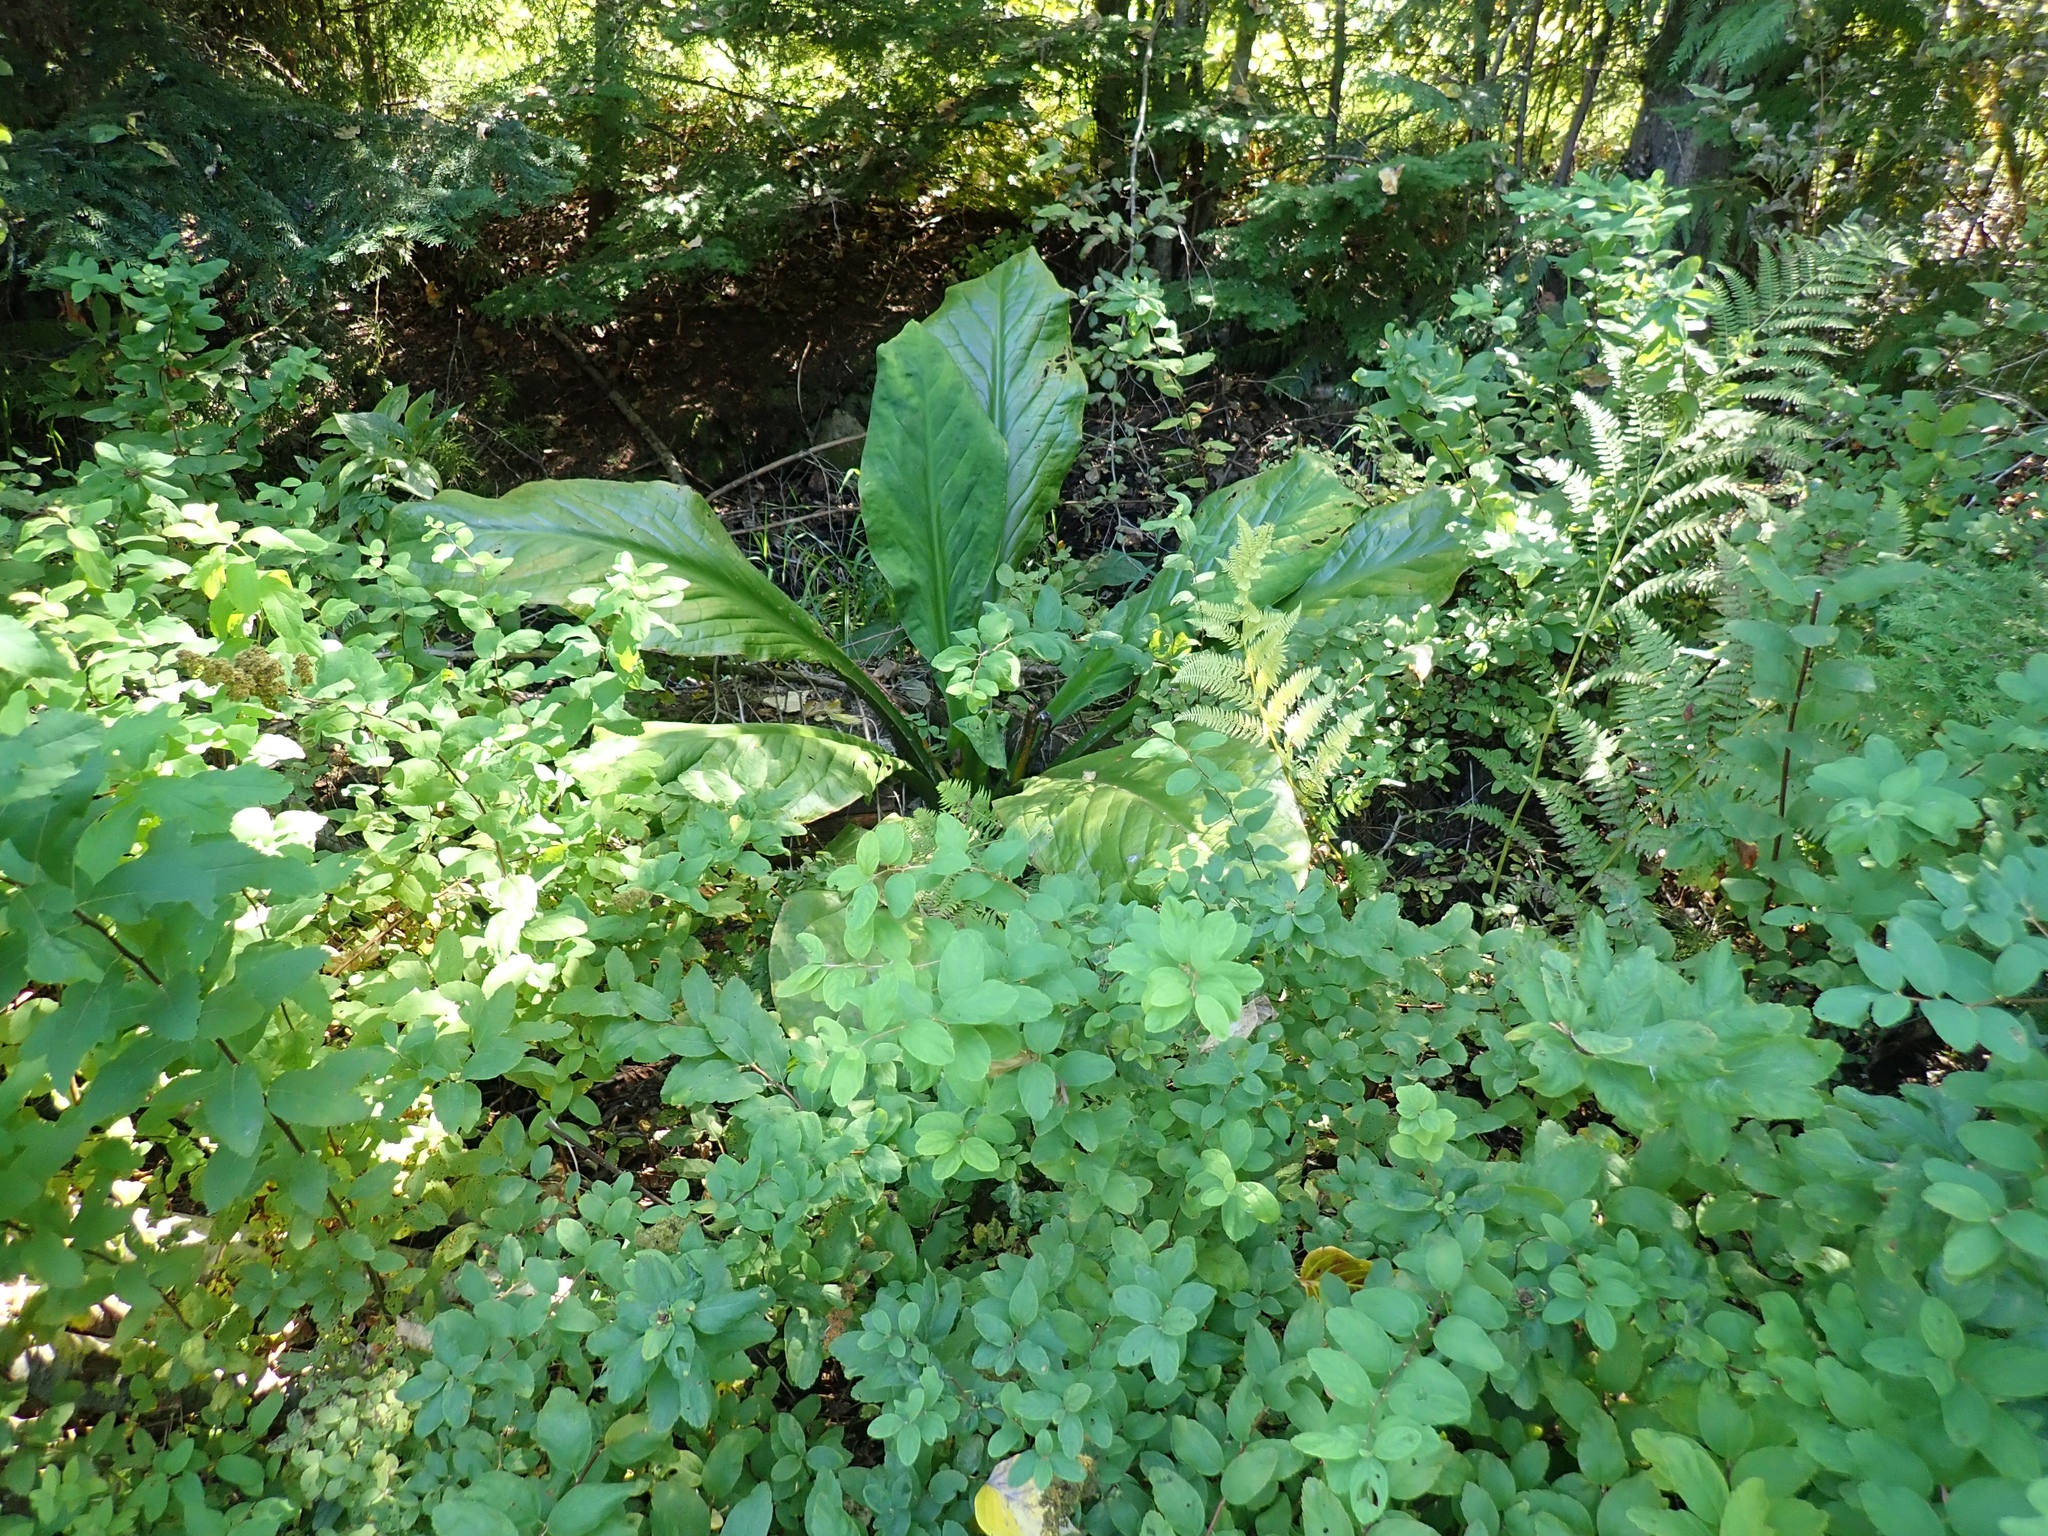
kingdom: Plantae
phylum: Tracheophyta
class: Liliopsida
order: Alismatales
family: Araceae
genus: Lysichiton
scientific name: Lysichiton americanus
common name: American skunk cabbage
